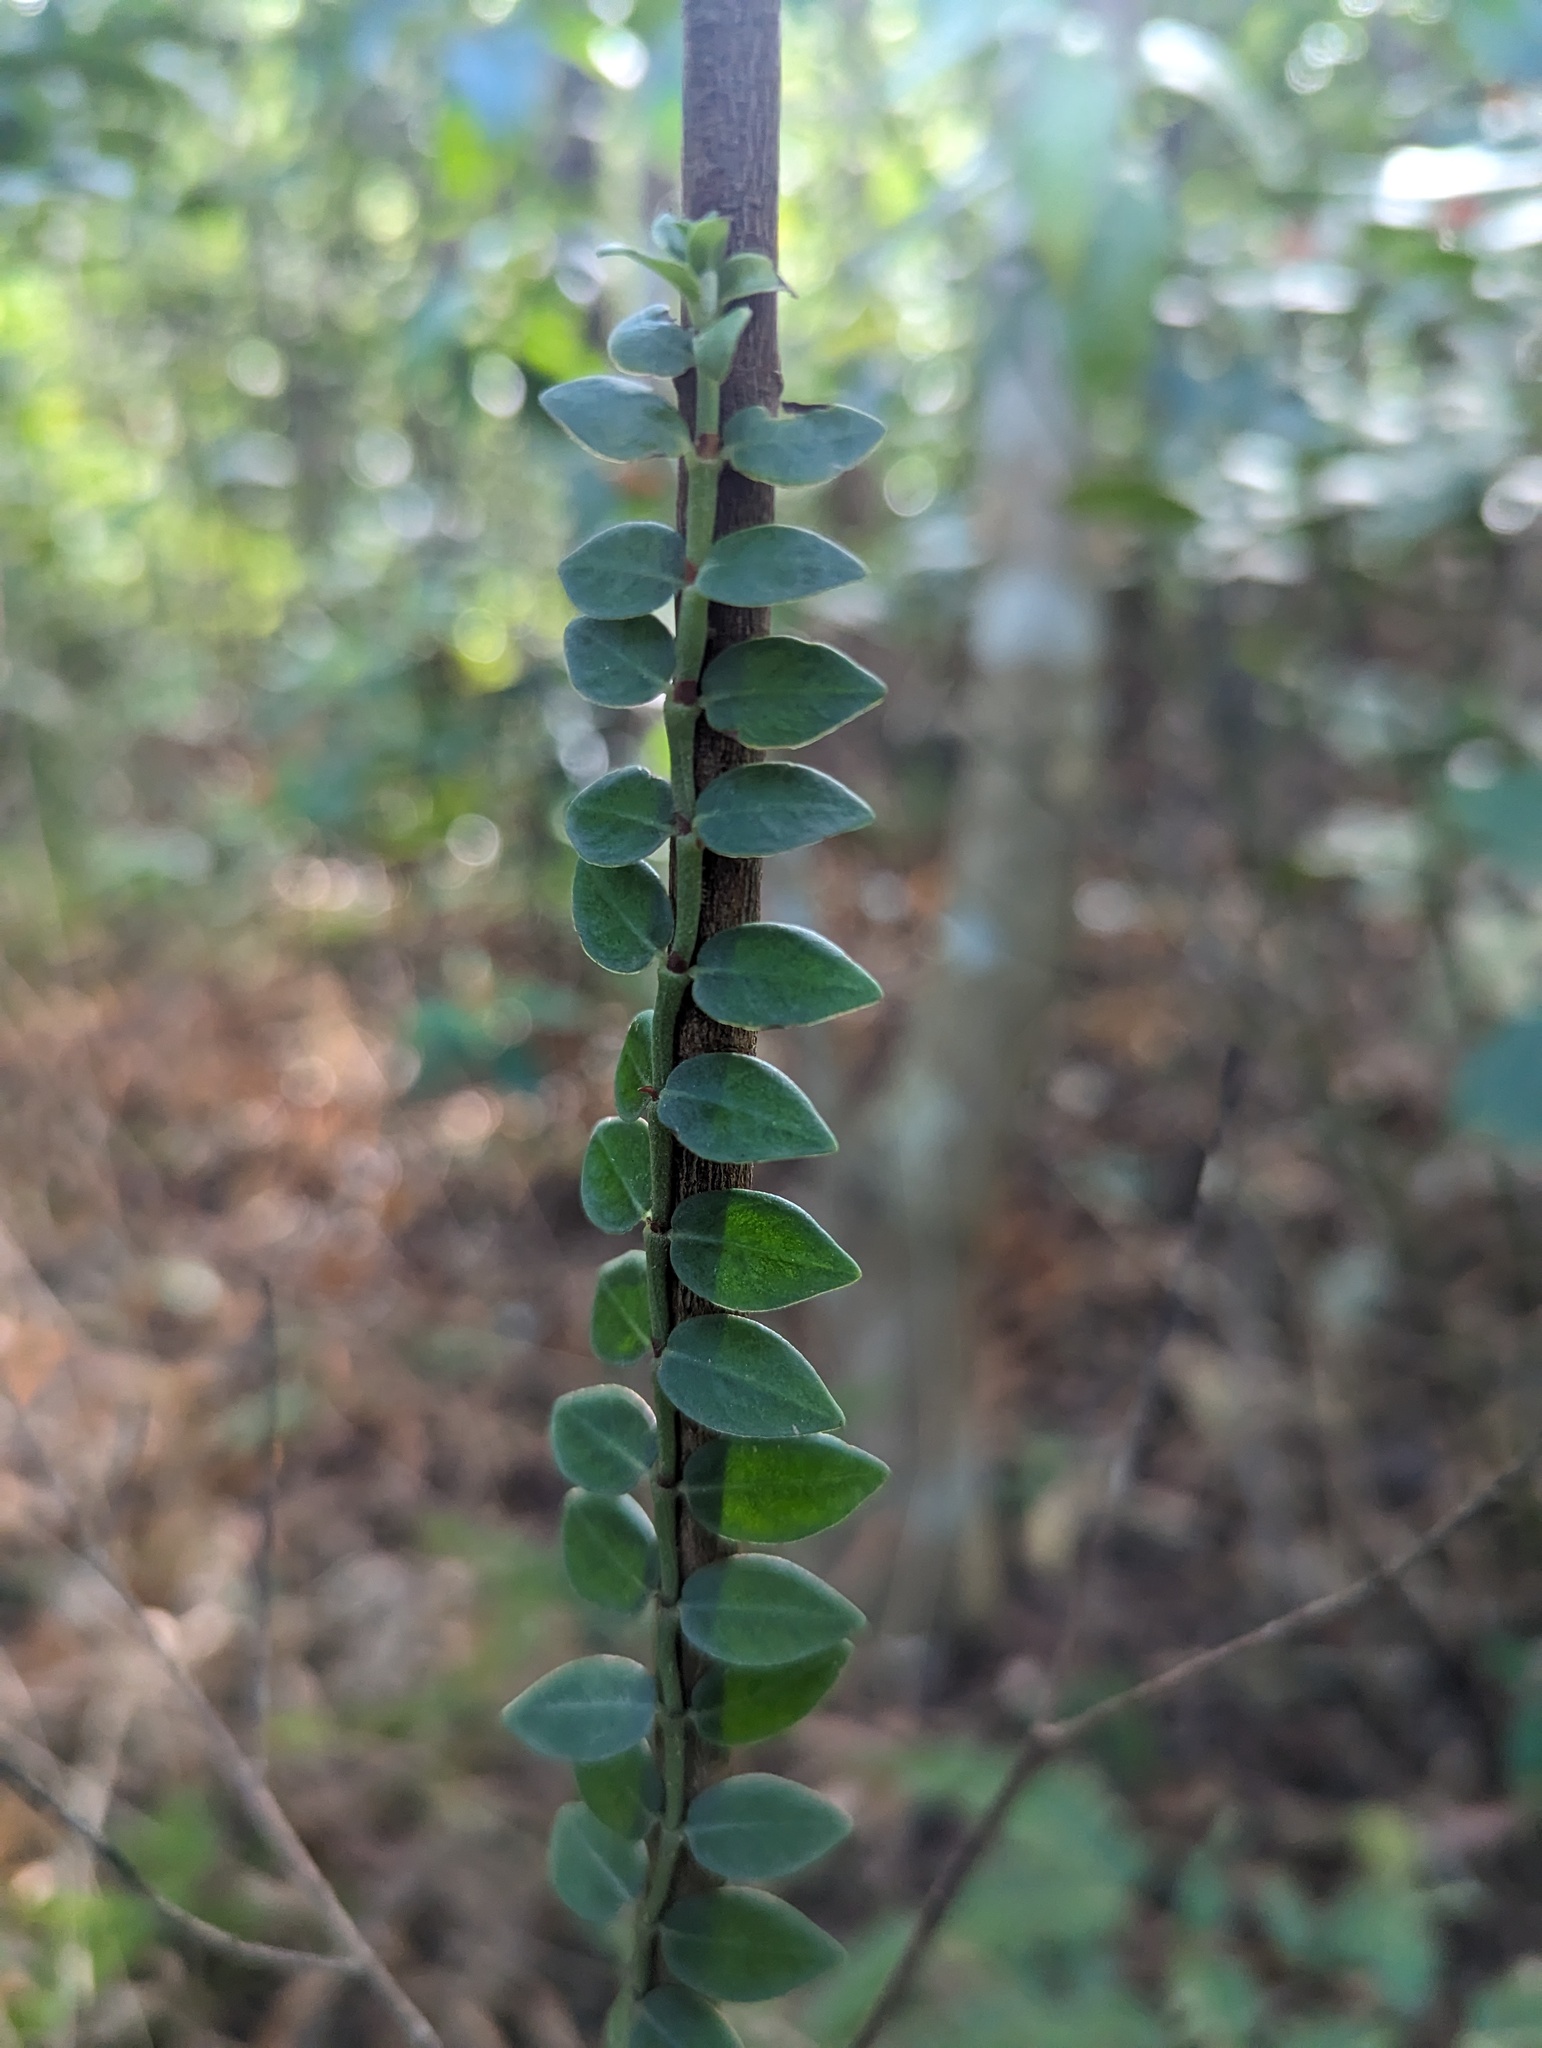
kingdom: Plantae
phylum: Tracheophyta
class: Magnoliopsida
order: Gentianales
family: Rubiaceae
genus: Psychotria
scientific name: Psychotria serpens
